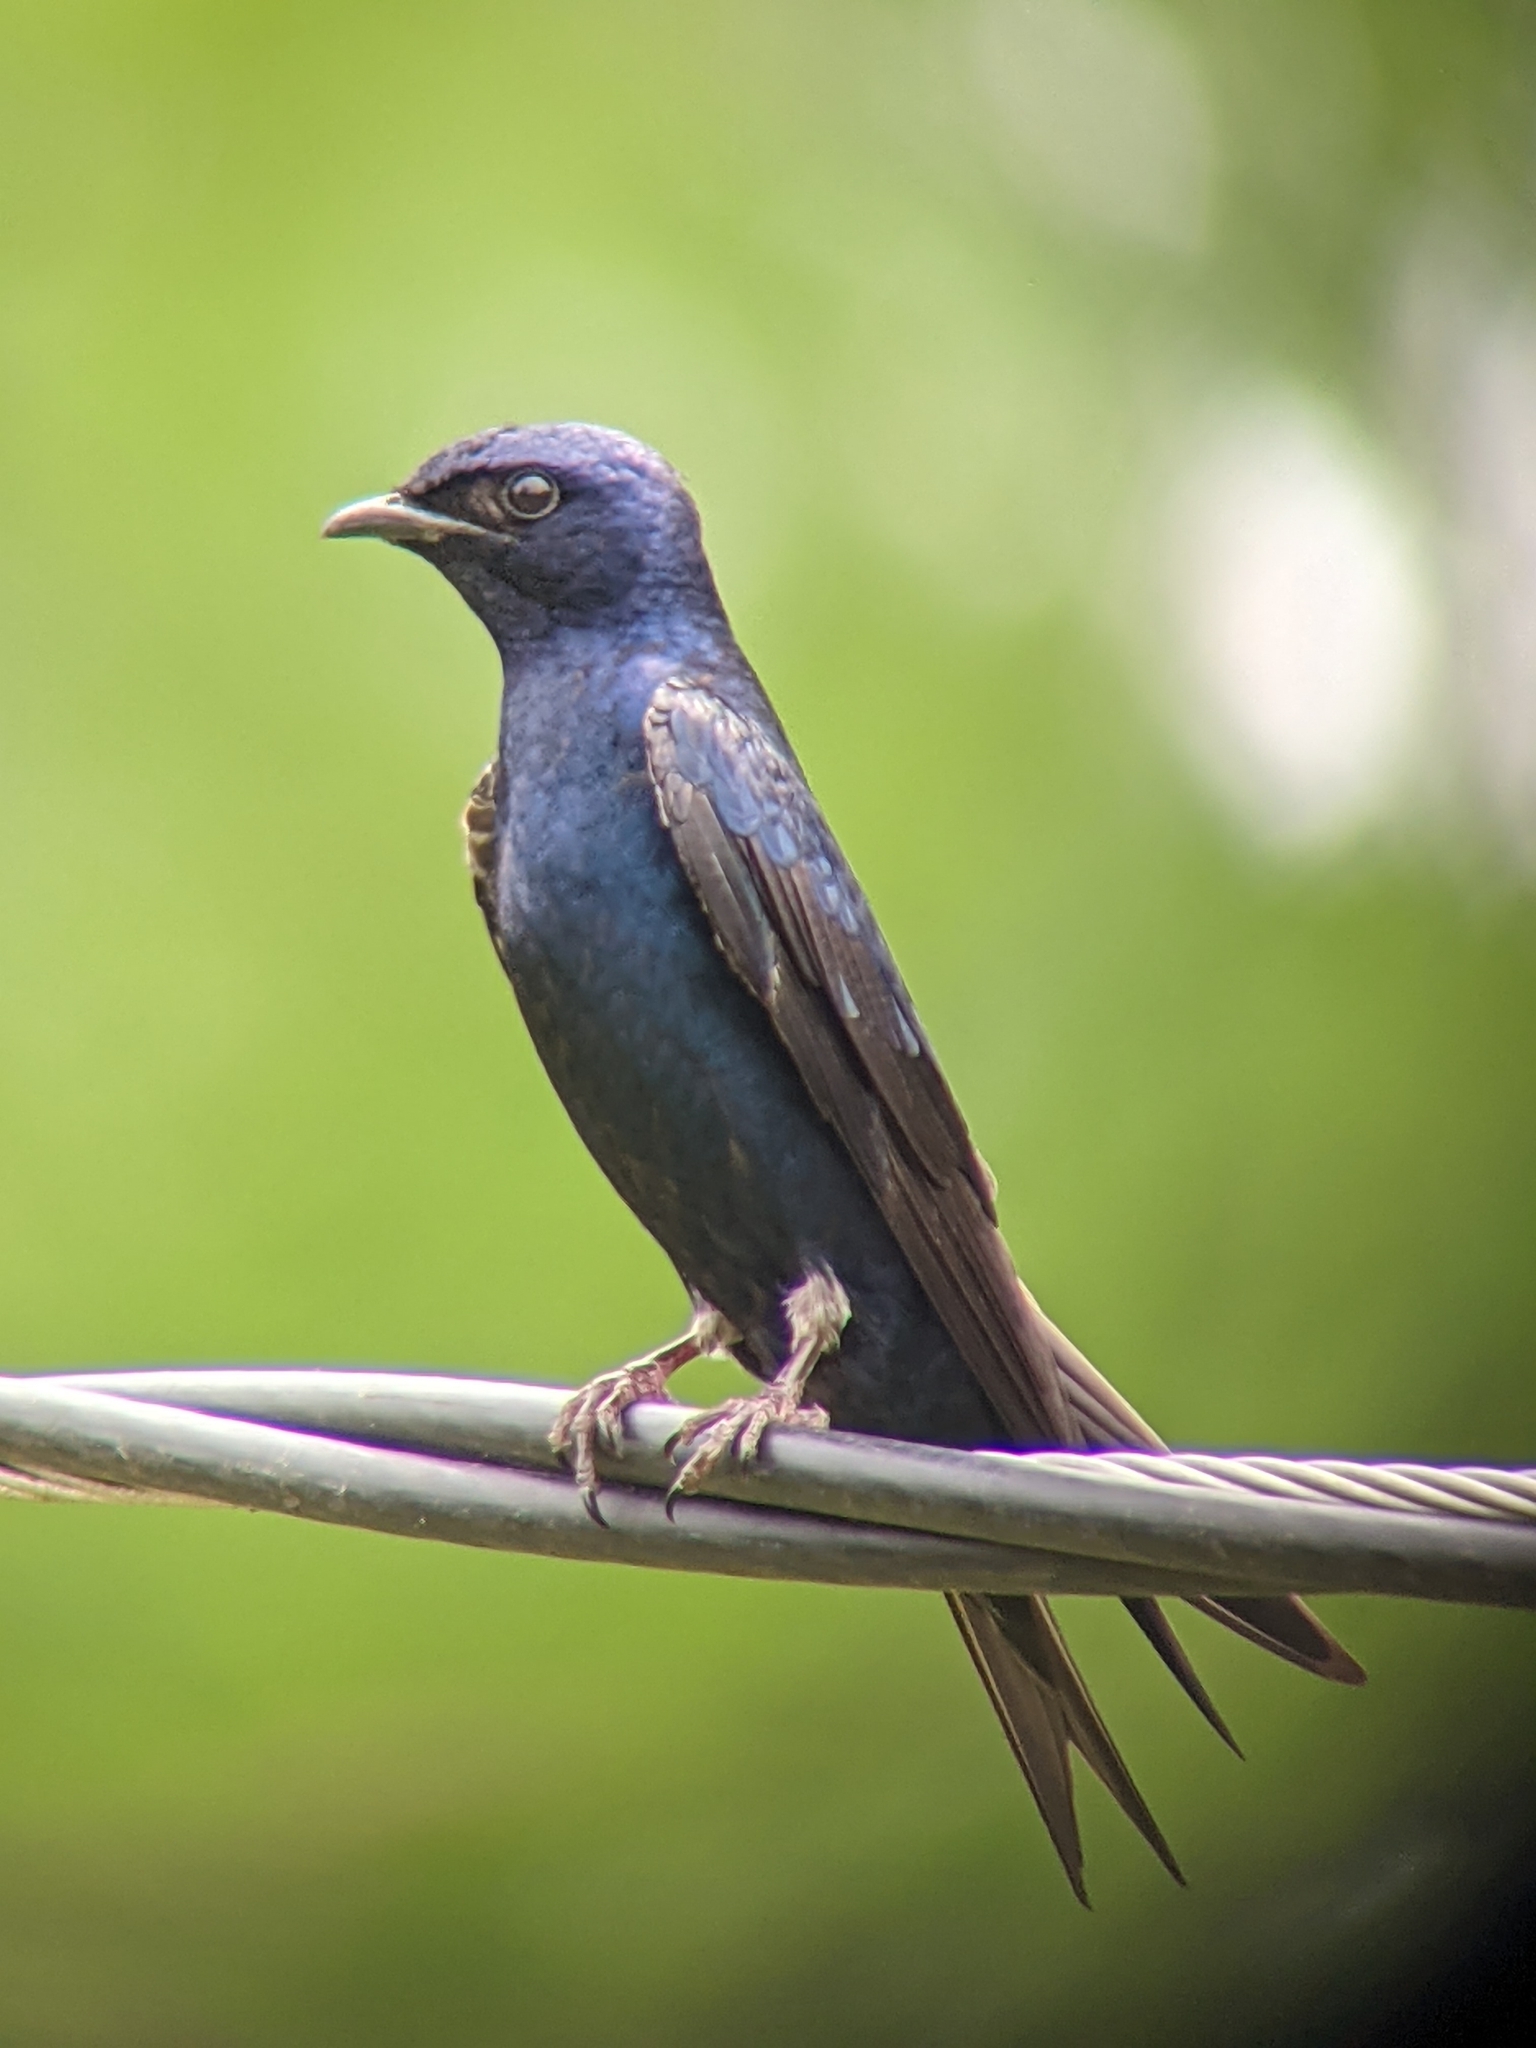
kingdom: Animalia
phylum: Chordata
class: Aves
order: Passeriformes
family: Hirundinidae
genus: Progne
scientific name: Progne subis
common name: Purple martin
